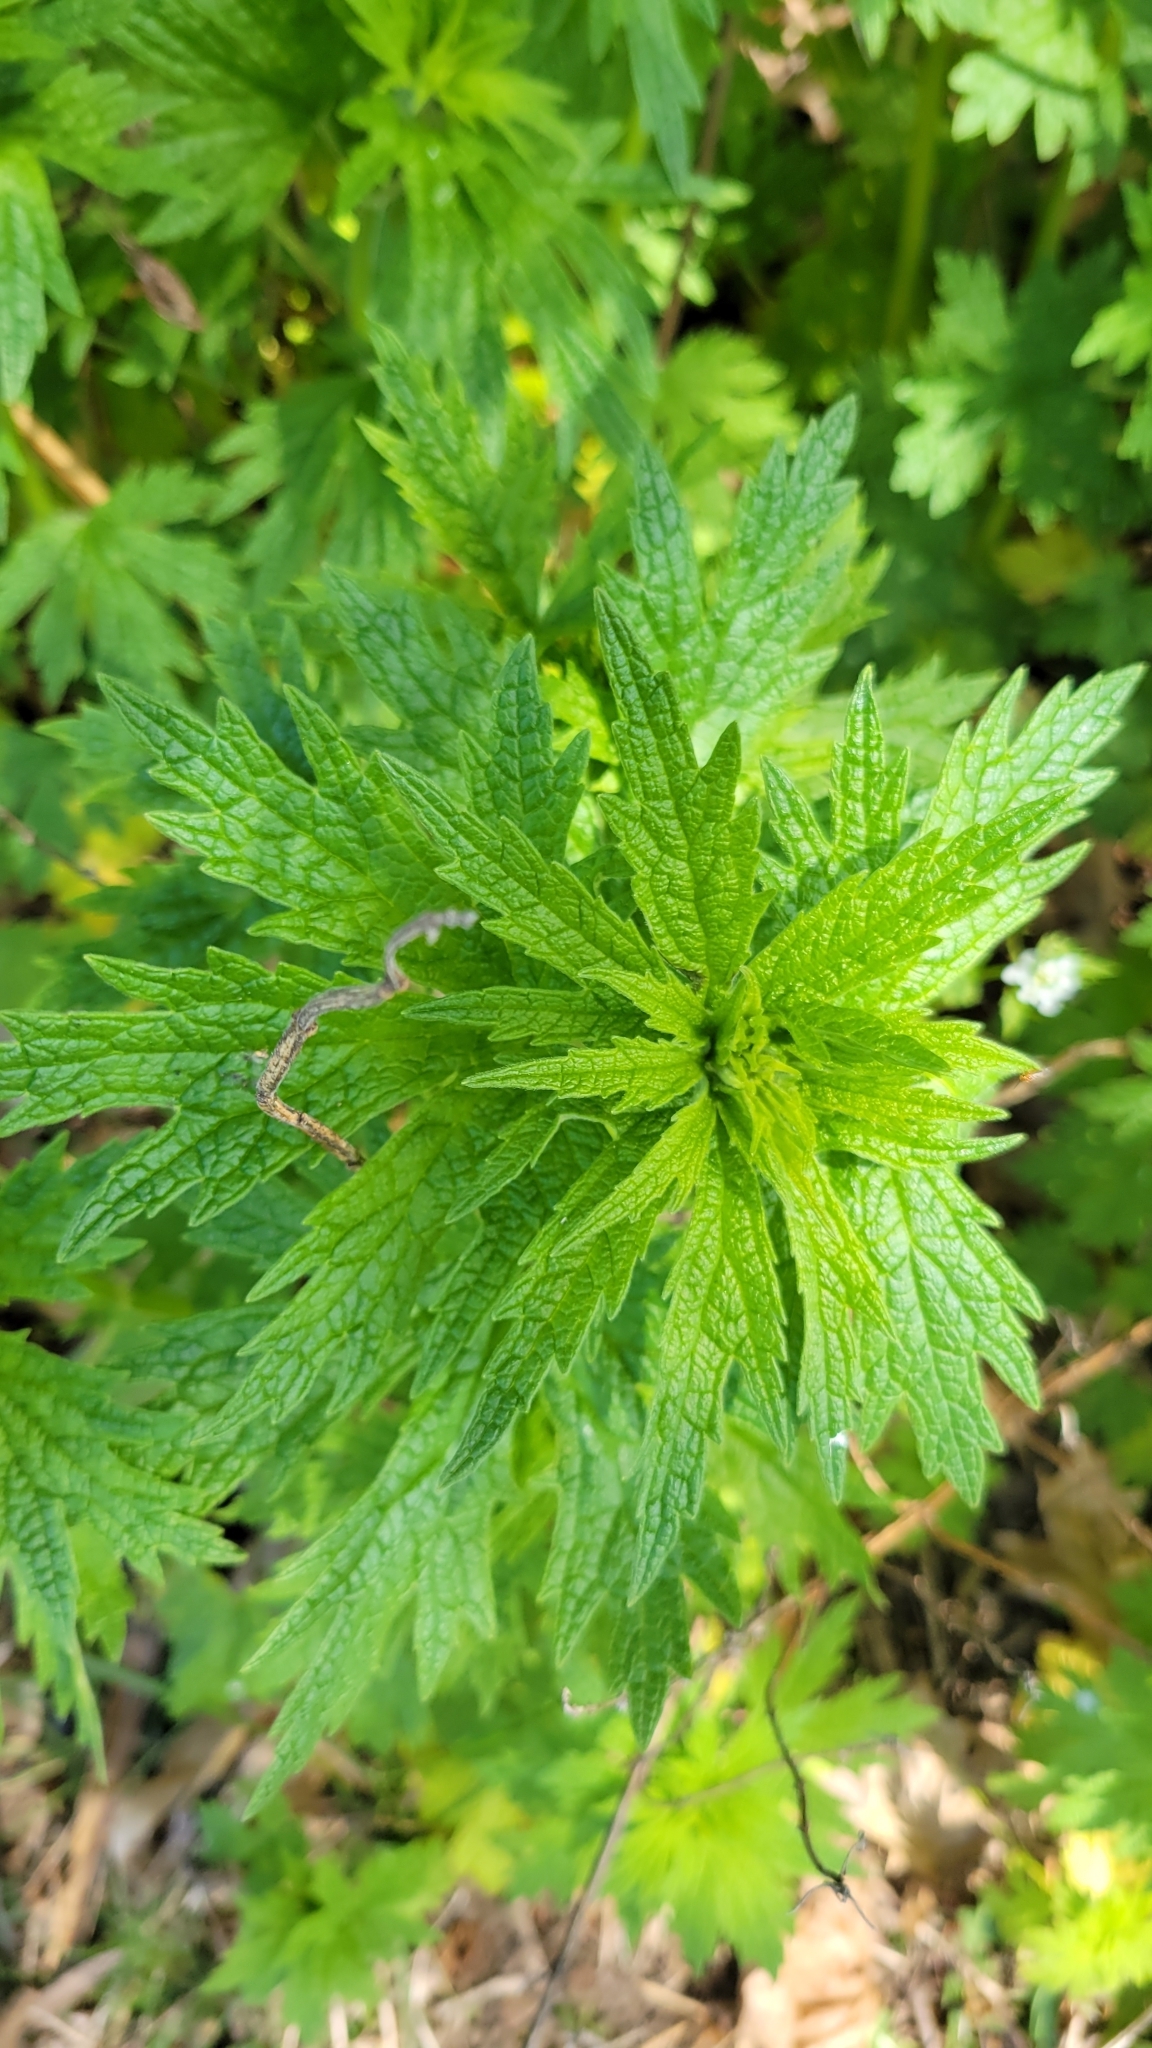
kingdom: Plantae
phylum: Tracheophyta
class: Magnoliopsida
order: Lamiales
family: Lamiaceae
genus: Leonurus
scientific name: Leonurus cardiaca
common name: Motherwort
